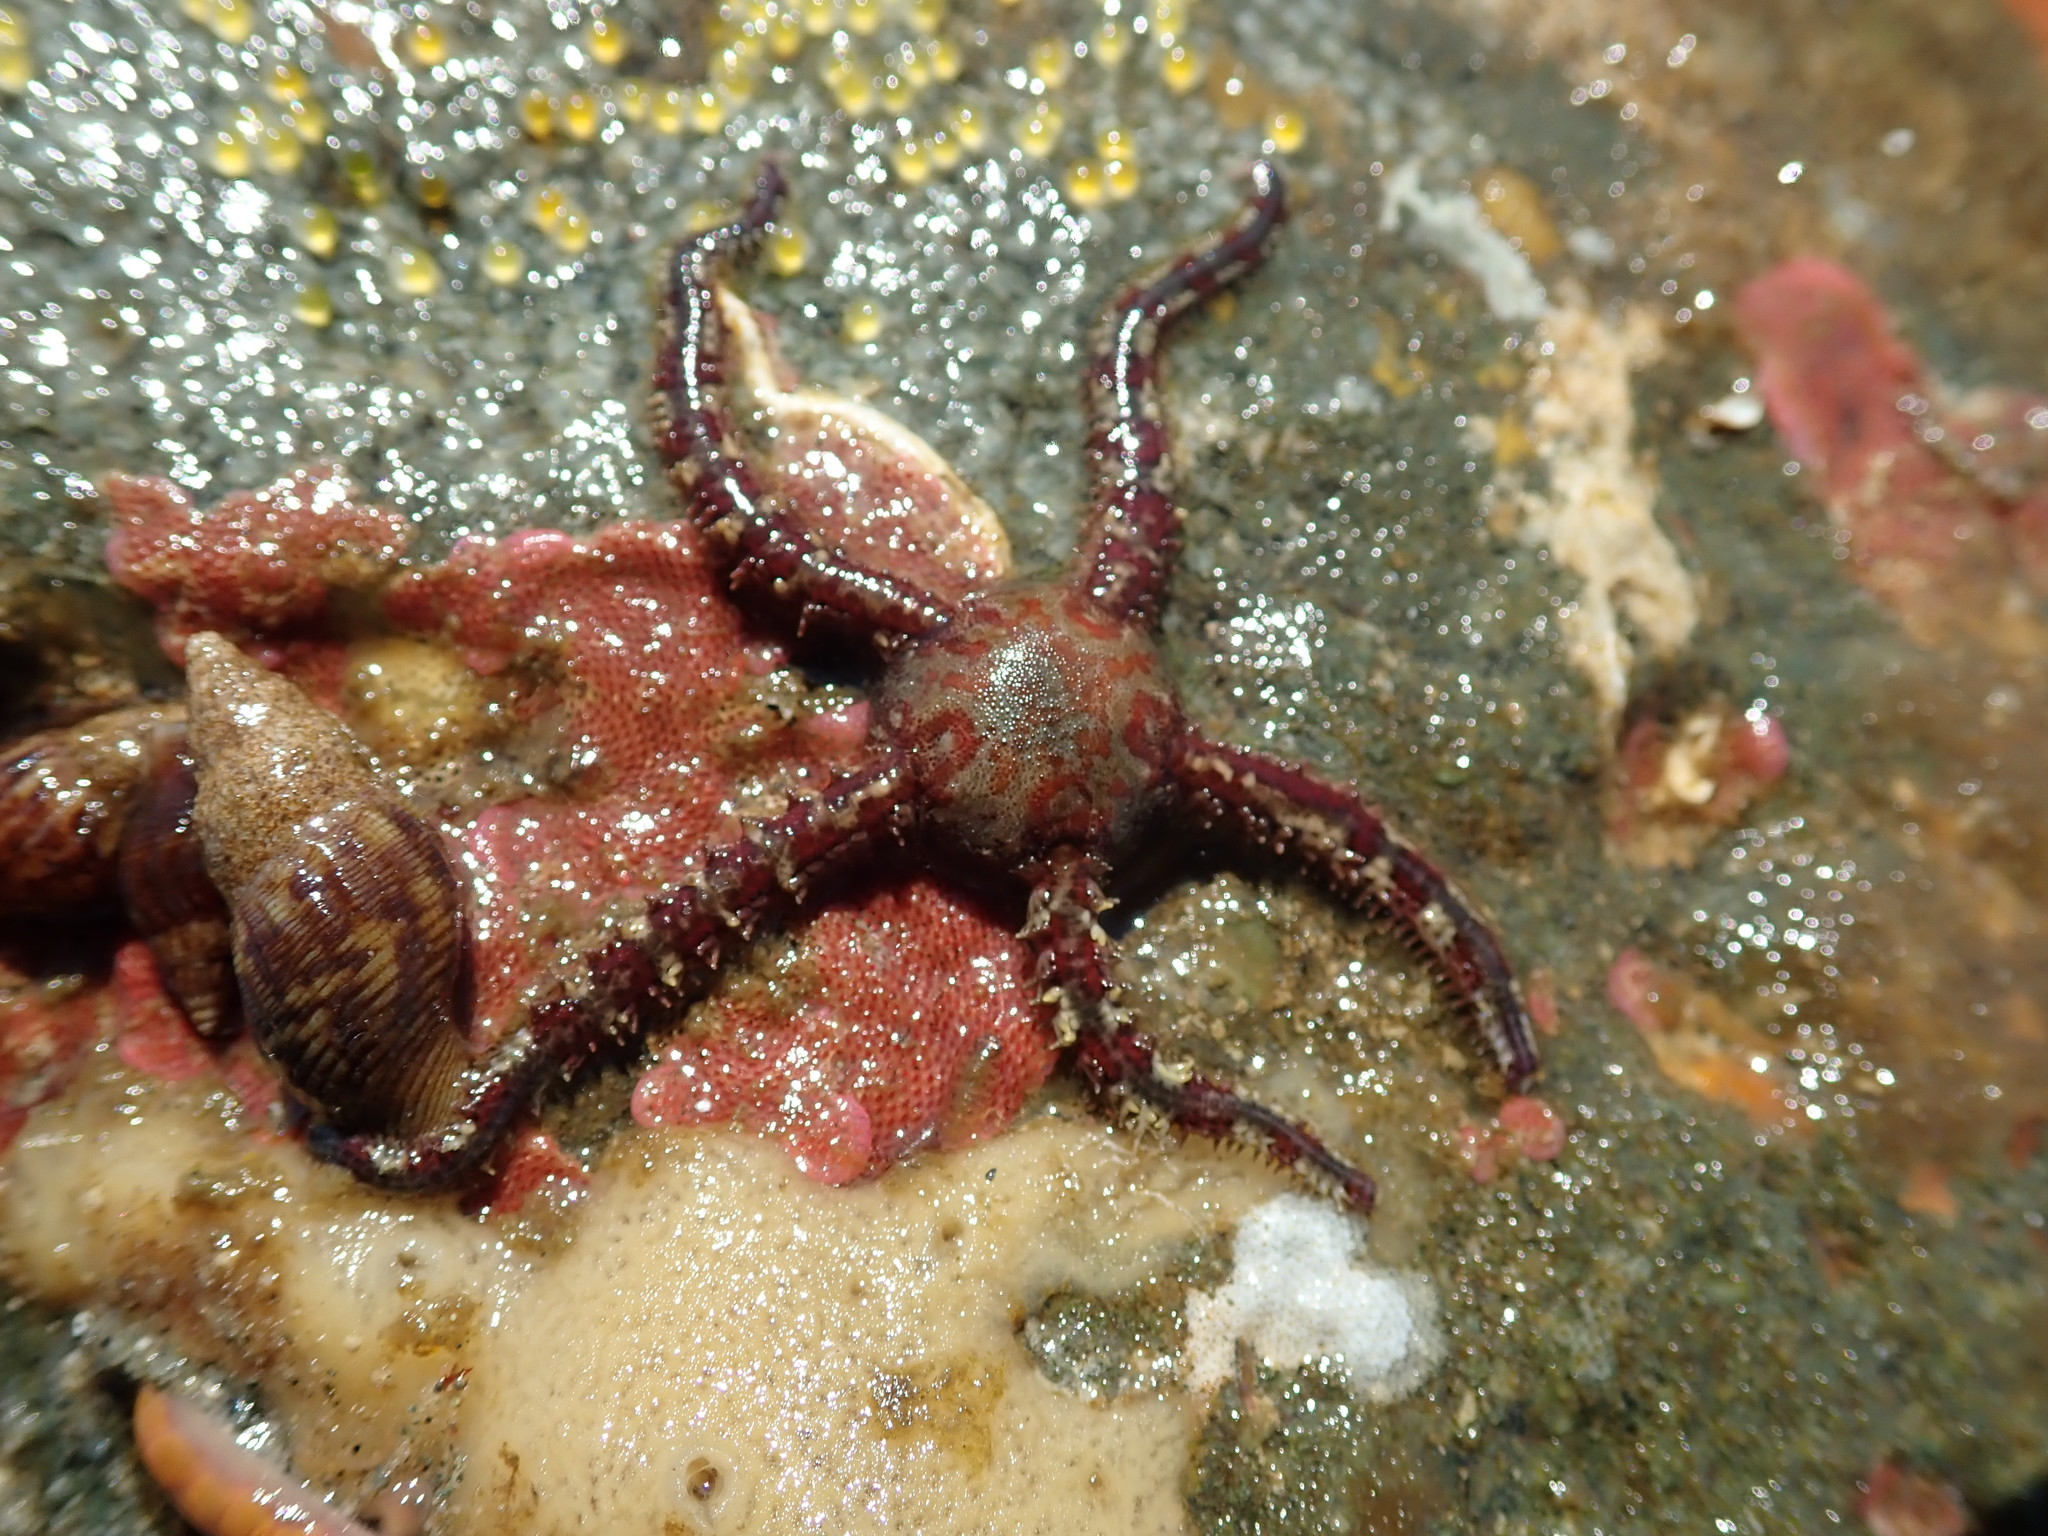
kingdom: Animalia
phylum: Echinodermata
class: Ophiuroidea
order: Amphilepidida
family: Ophiopholidae
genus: Ophiopholis
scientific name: Ophiopholis aculeata
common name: Crevice brittlestar
